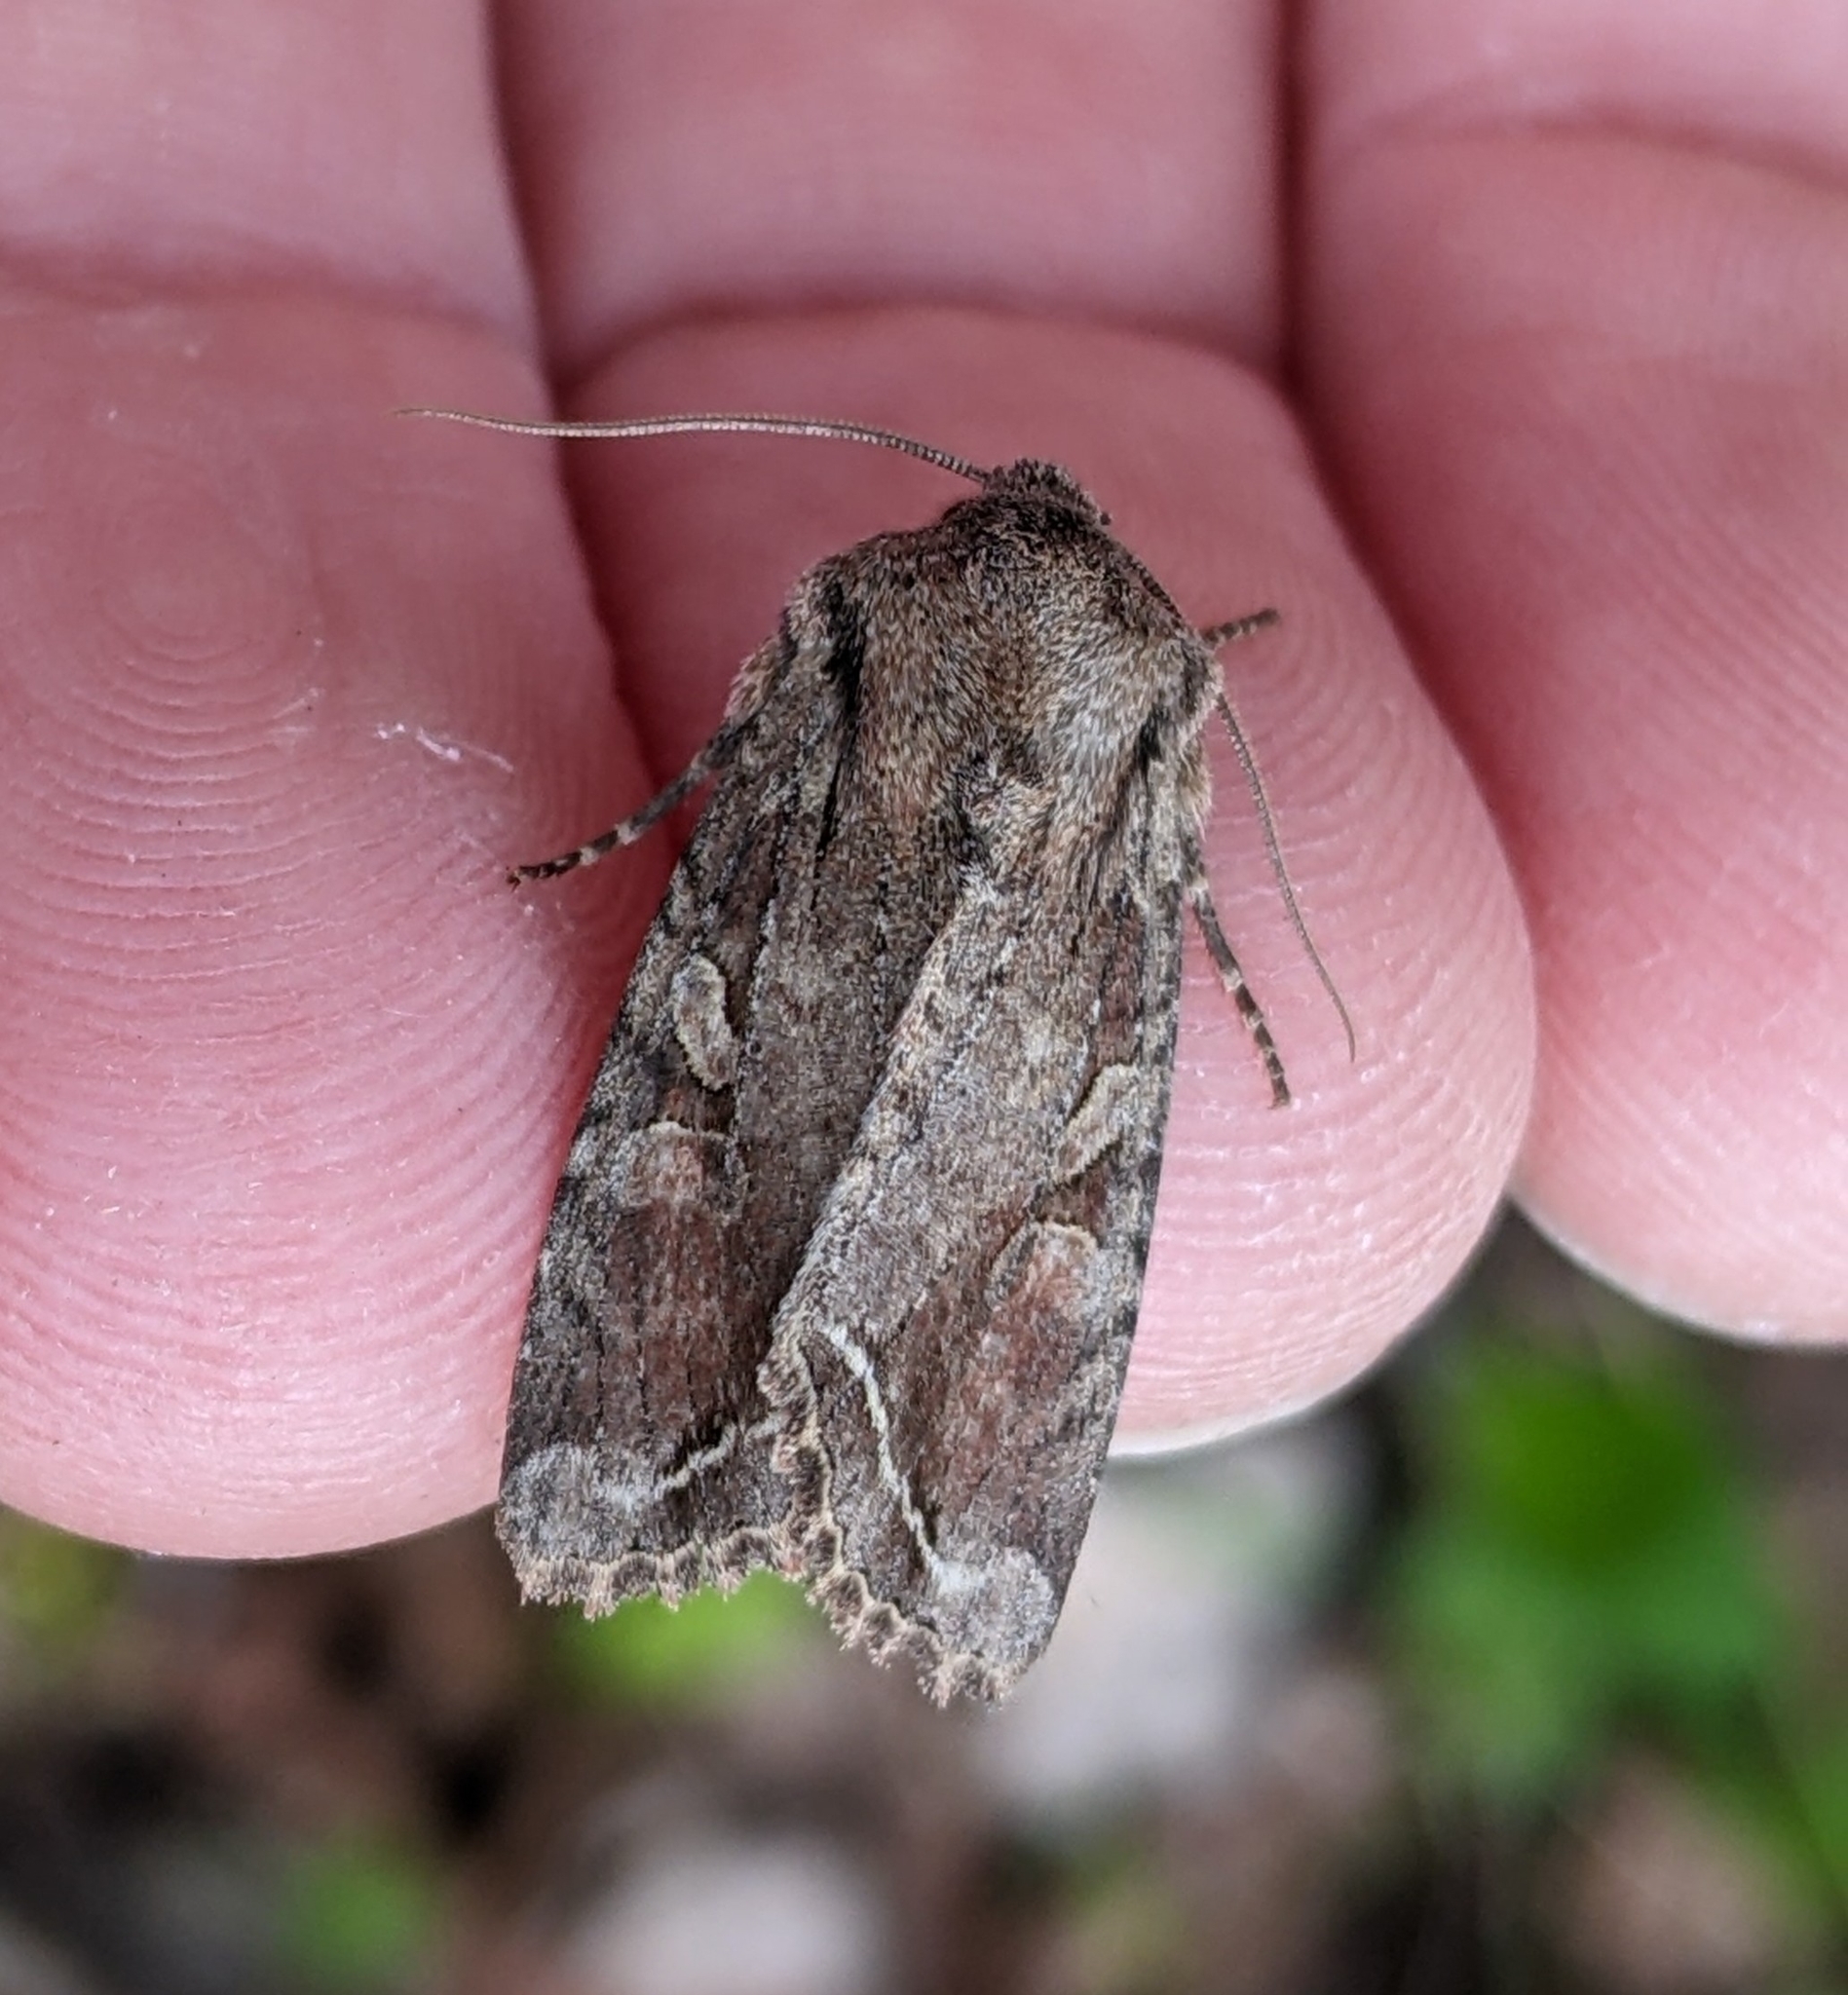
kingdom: Animalia
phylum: Arthropoda
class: Insecta
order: Lepidoptera
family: Noctuidae
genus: Egira
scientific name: Egira rubrica
